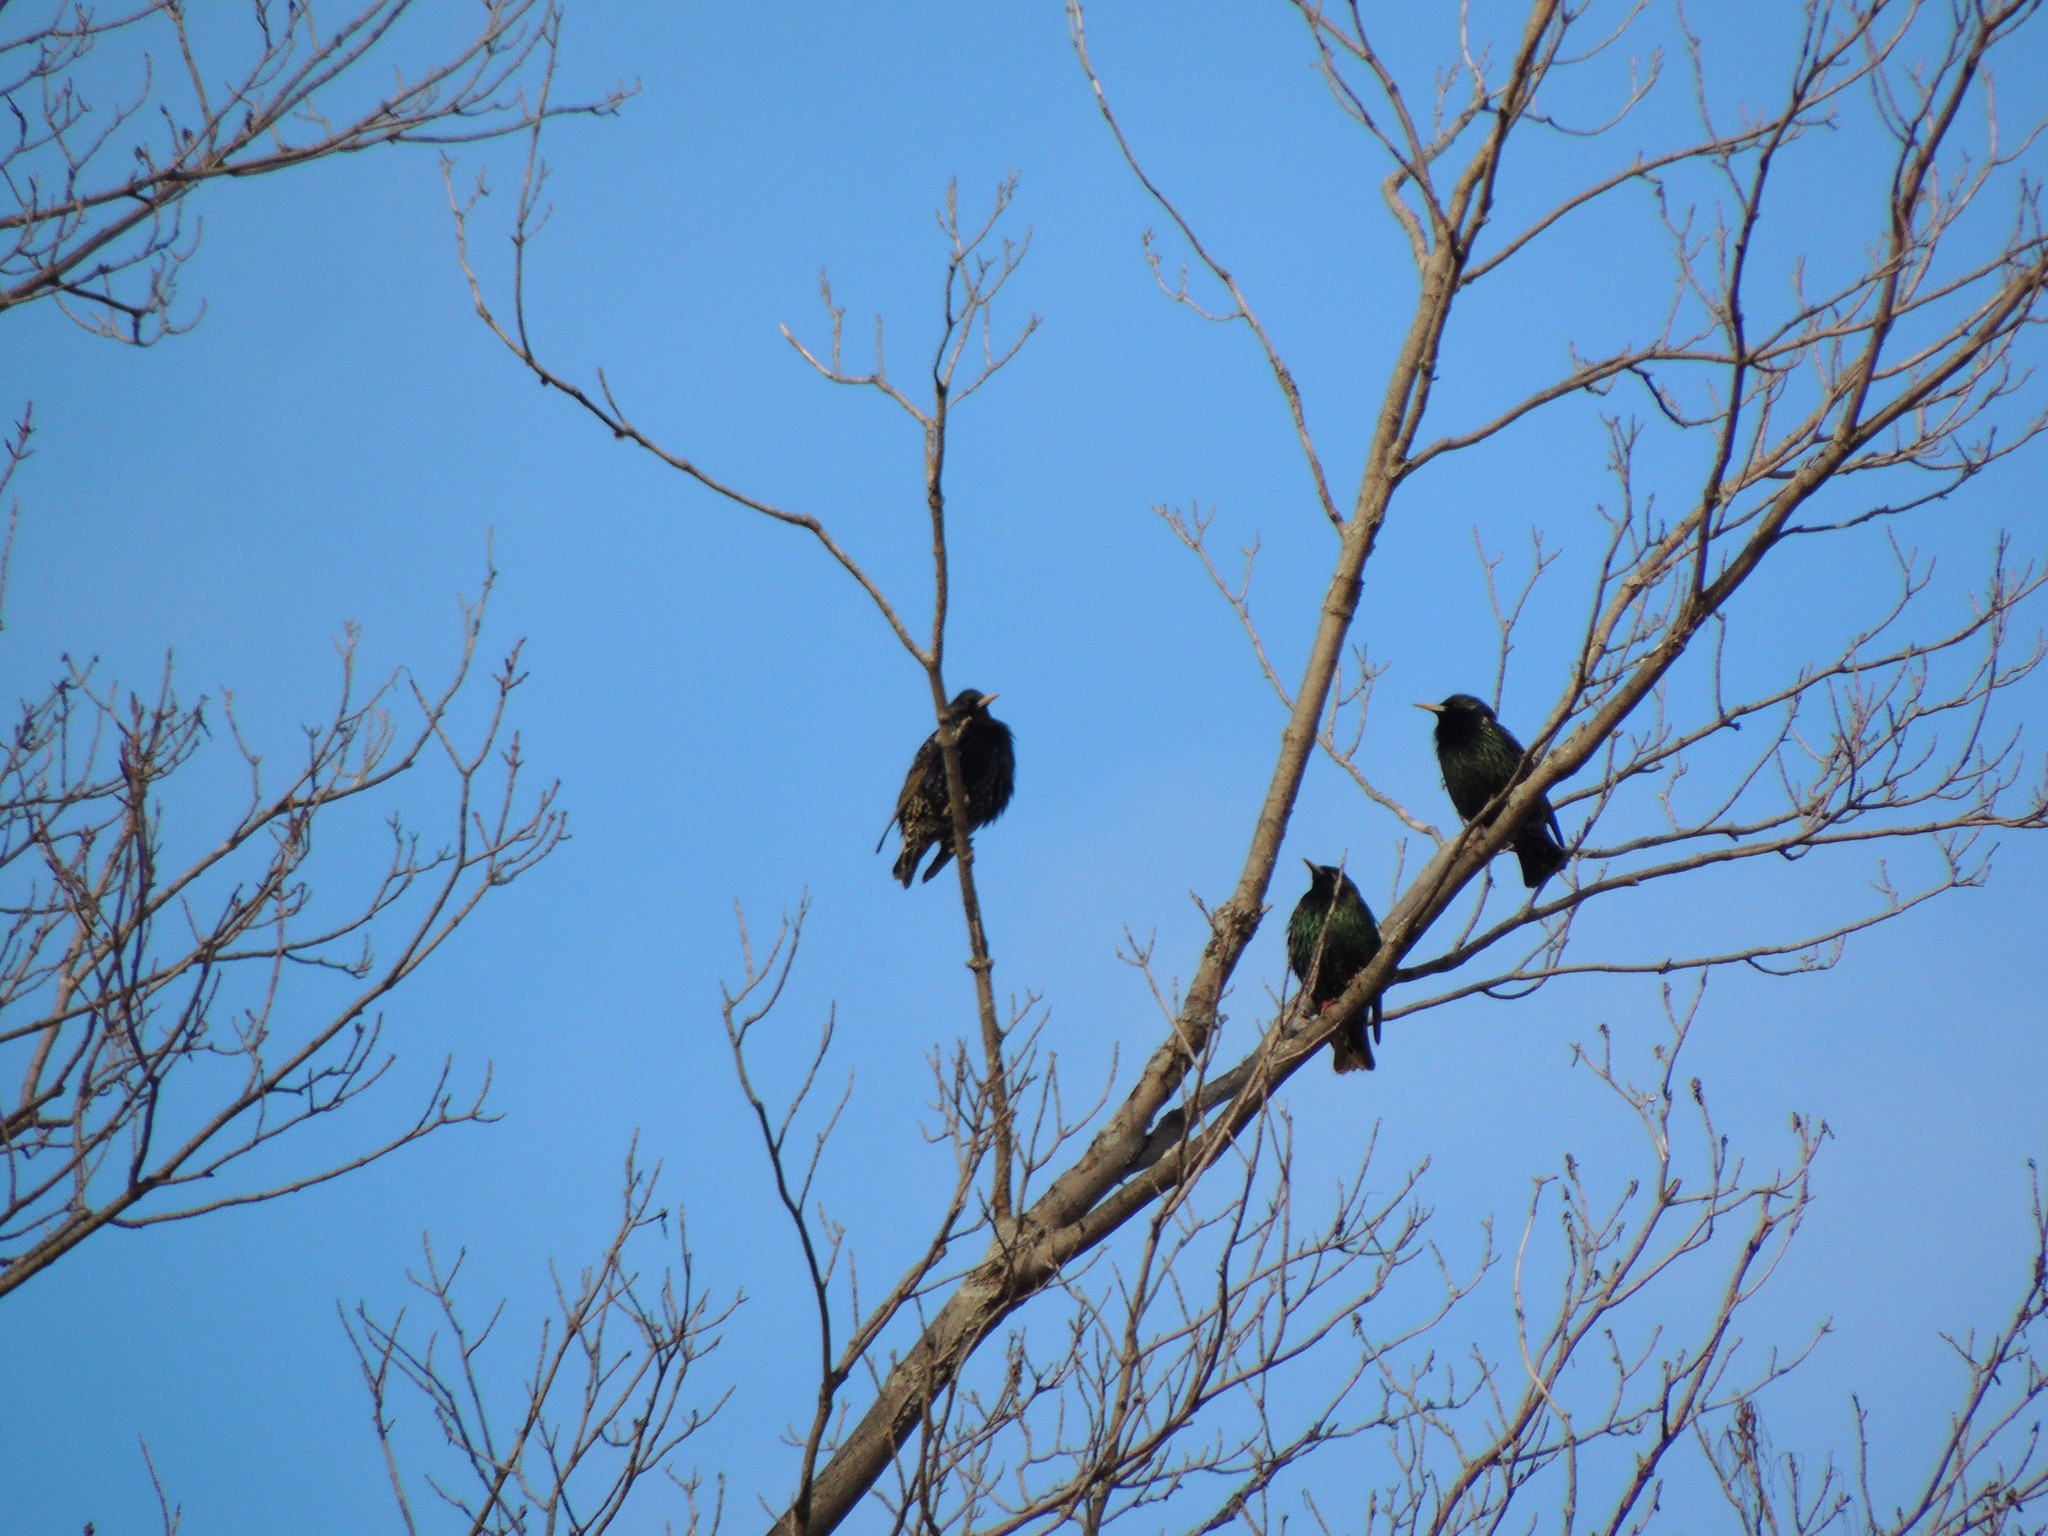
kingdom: Animalia
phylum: Chordata
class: Aves
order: Passeriformes
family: Sturnidae
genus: Sturnus
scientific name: Sturnus vulgaris
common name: Common starling
